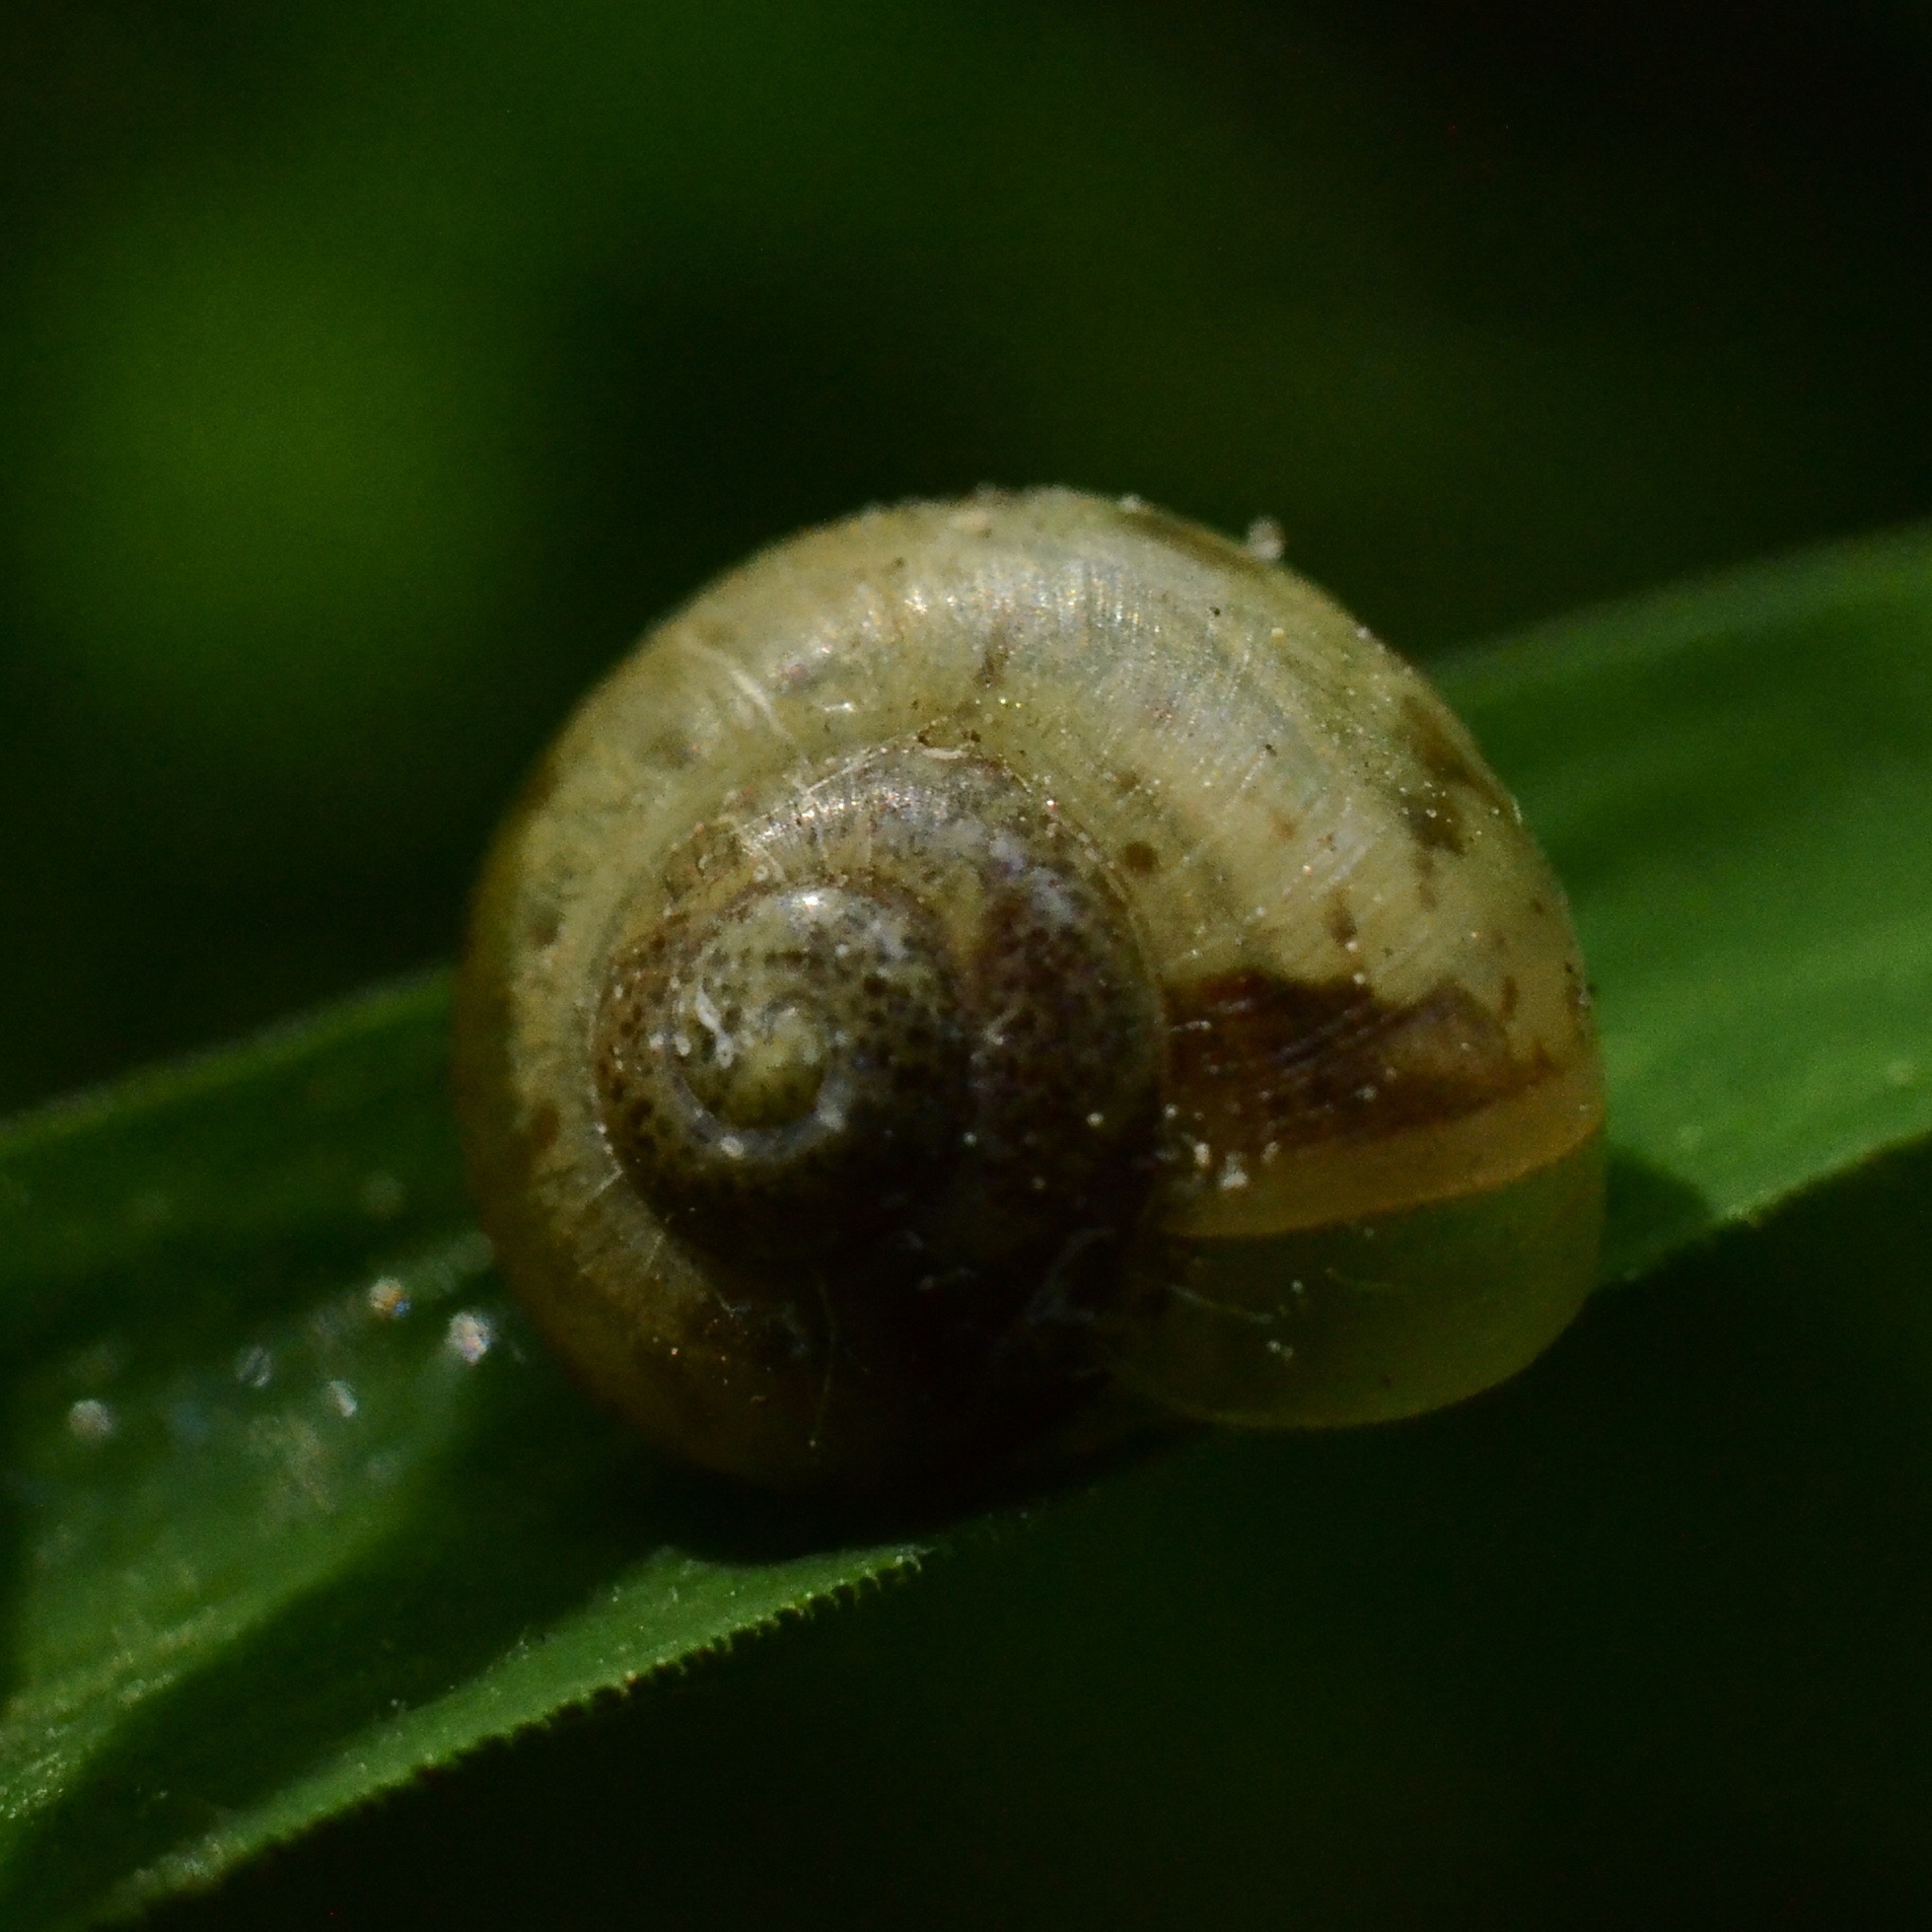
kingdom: Animalia
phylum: Mollusca
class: Gastropoda
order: Stylommatophora
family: Camaenidae
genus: Fruticicola
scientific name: Fruticicola fruticum
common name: Bush snail
